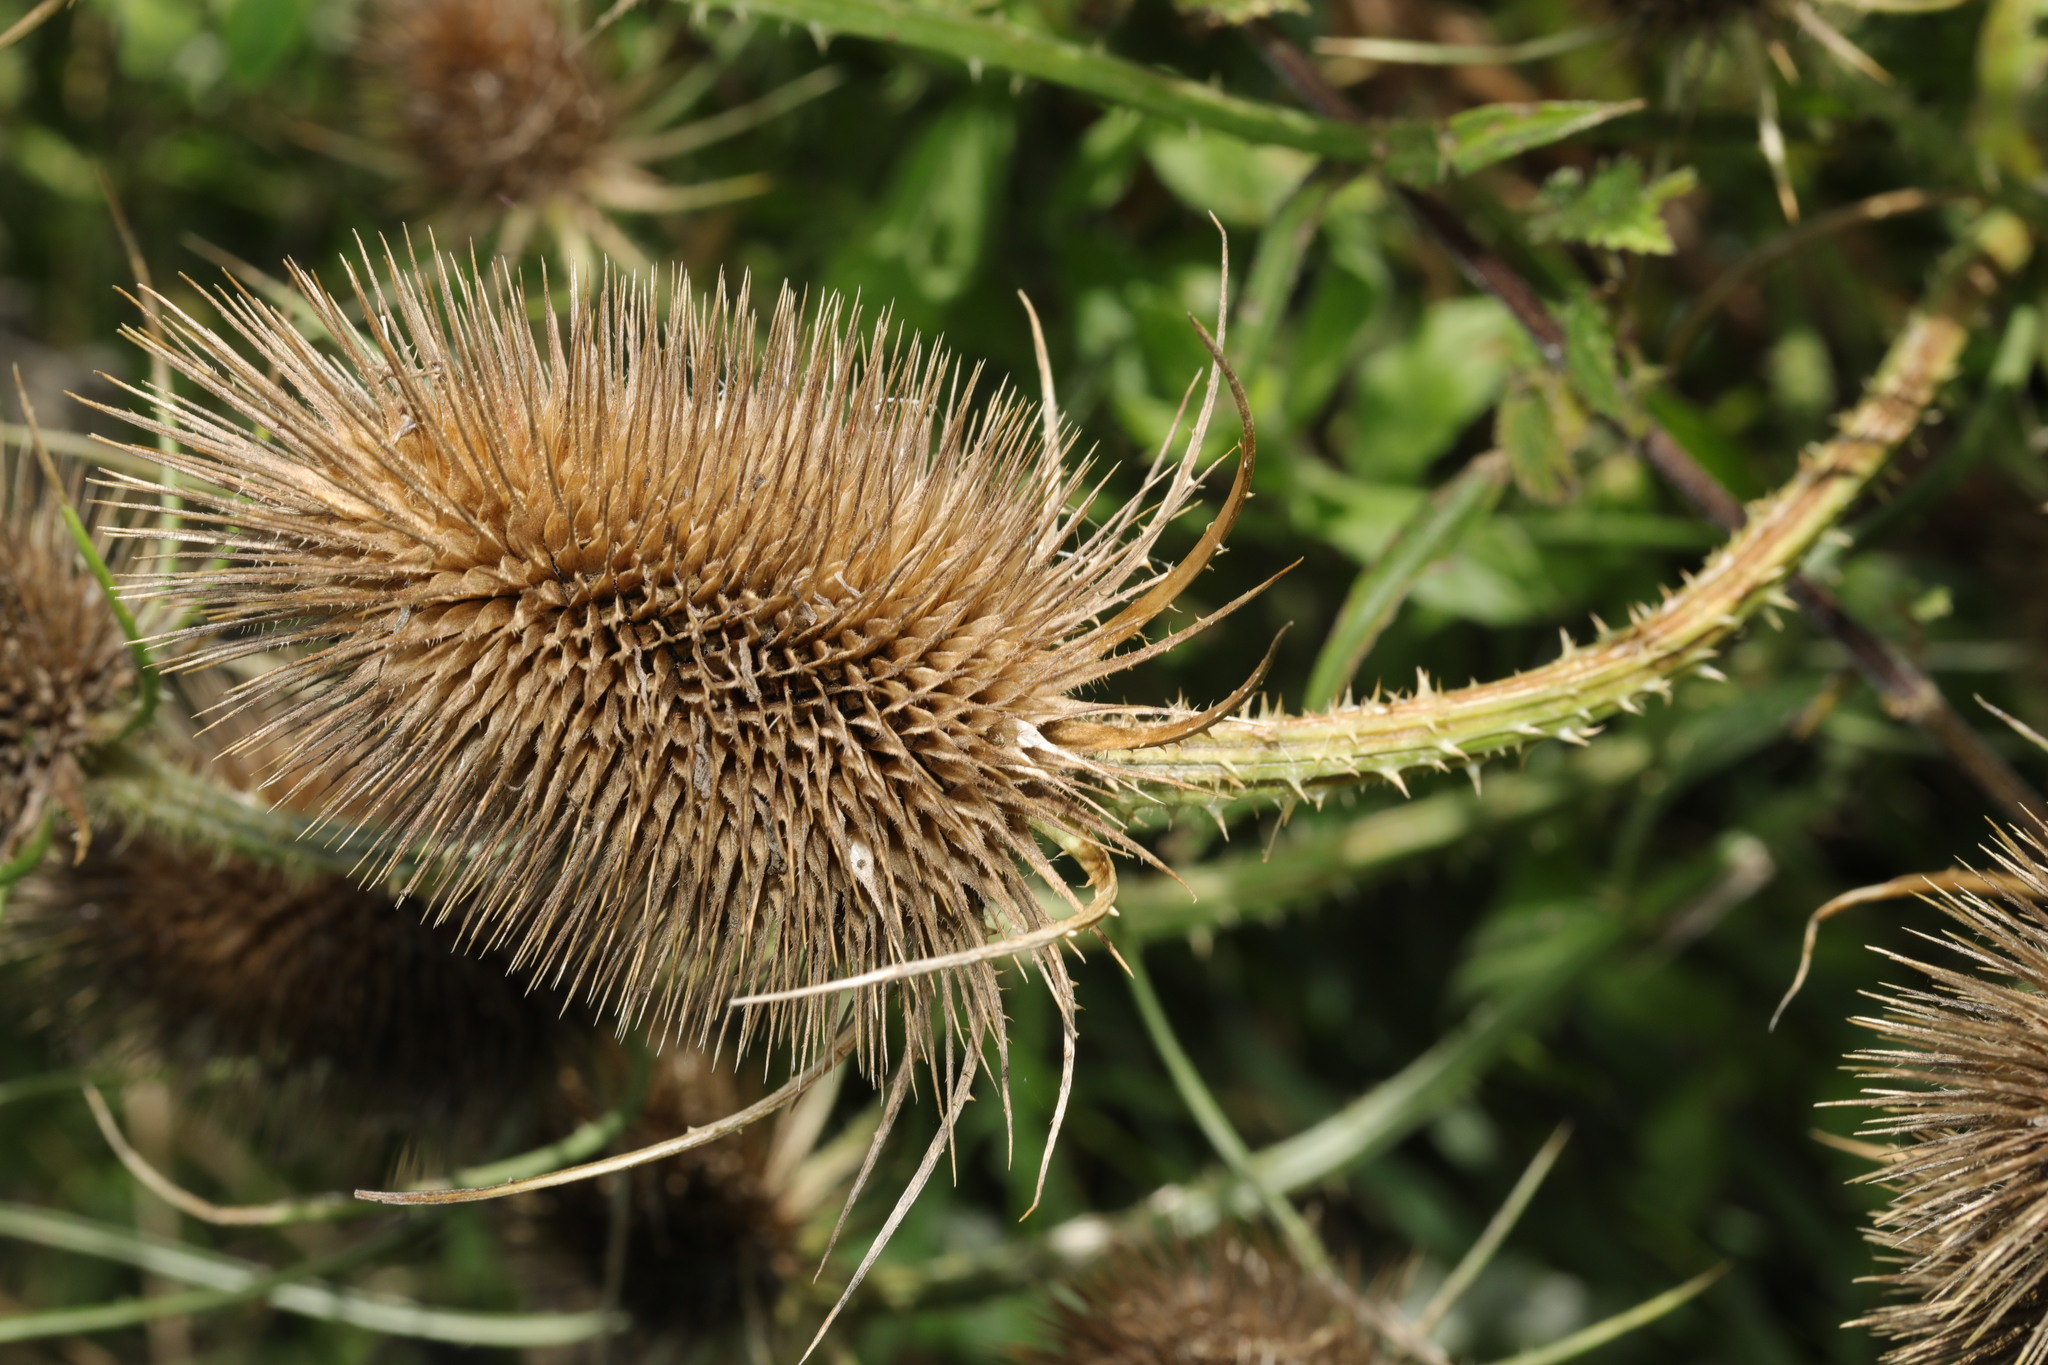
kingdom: Plantae
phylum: Tracheophyta
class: Magnoliopsida
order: Dipsacales
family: Caprifoliaceae
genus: Dipsacus
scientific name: Dipsacus fullonum
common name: Teasel
